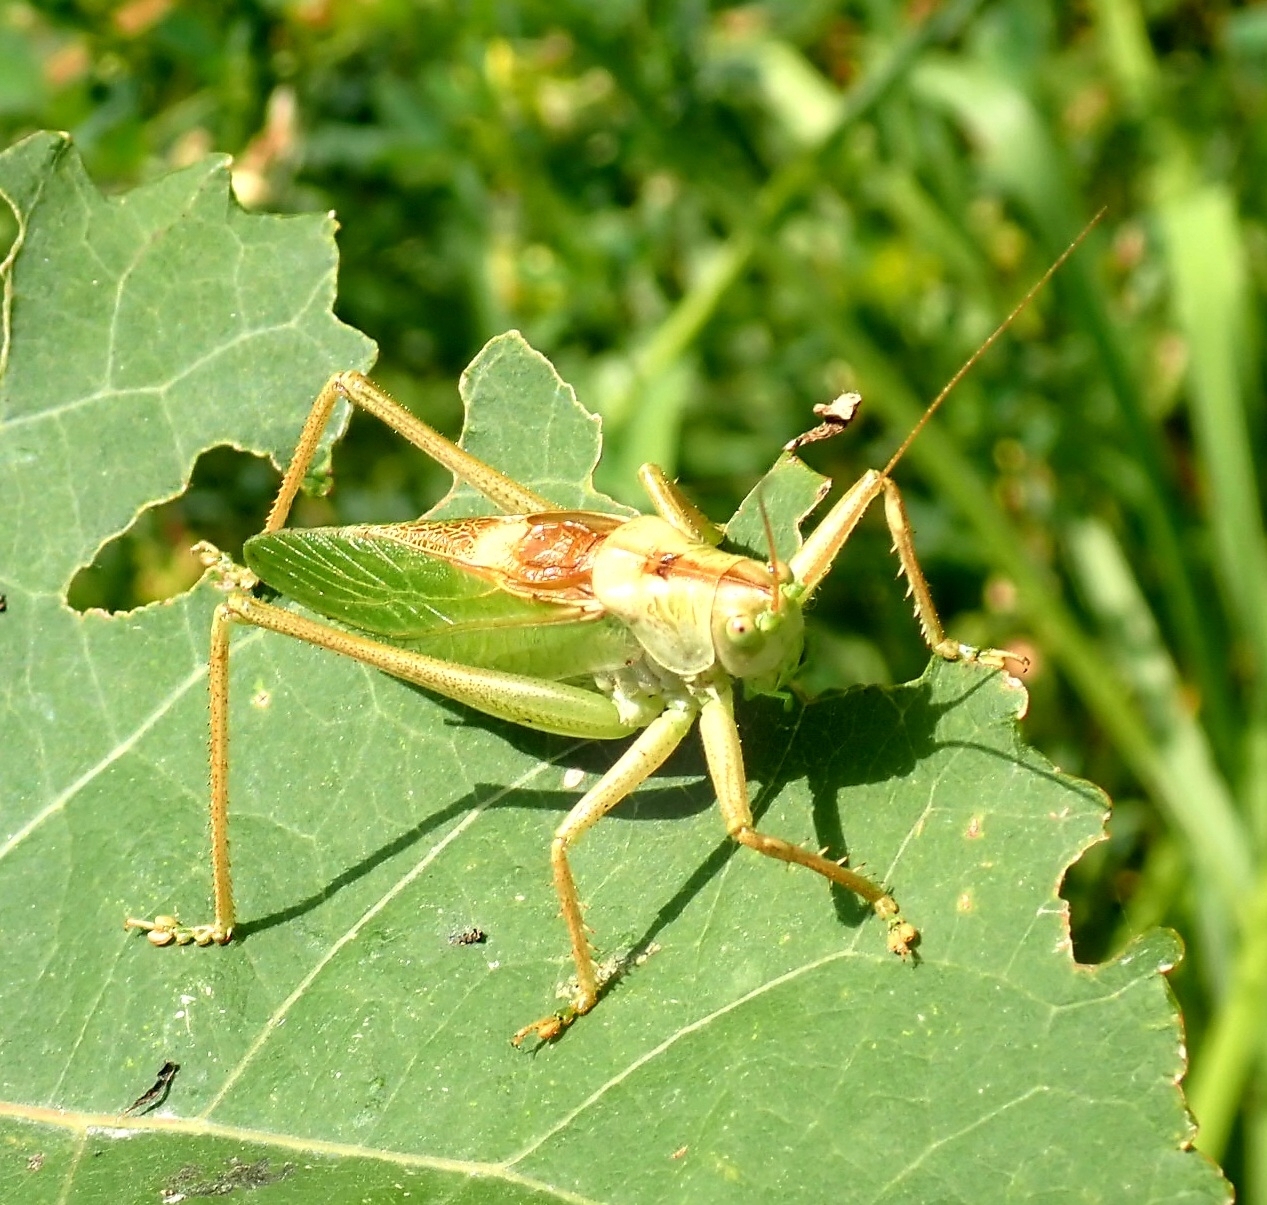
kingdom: Animalia
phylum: Arthropoda
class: Insecta
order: Orthoptera
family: Tettigoniidae
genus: Tettigonia
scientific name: Tettigonia cantans
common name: Upland green bush-cricket
